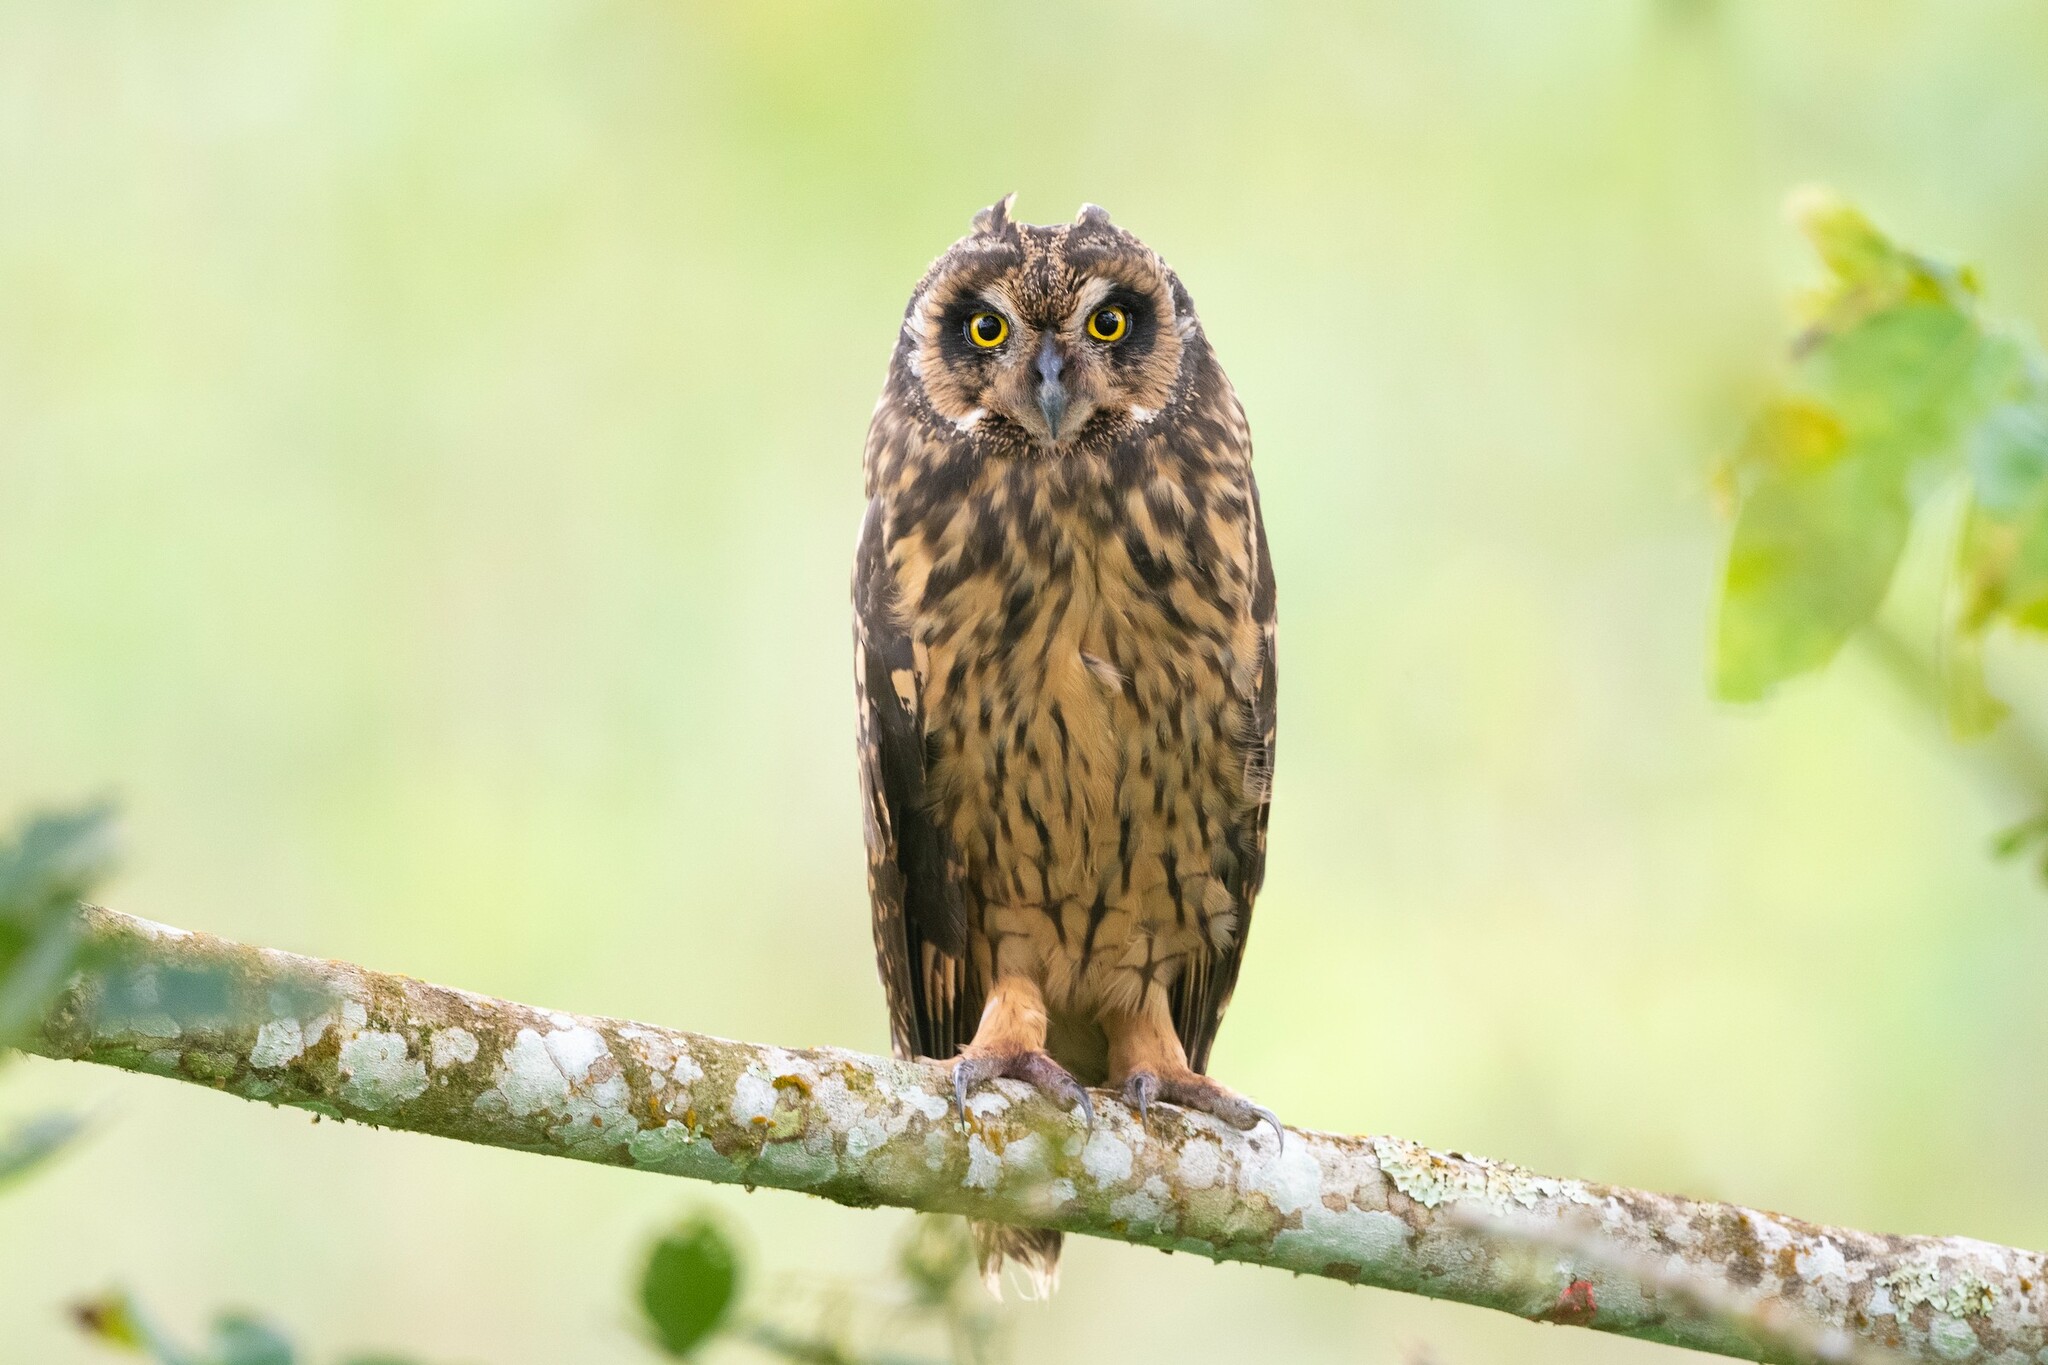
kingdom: Animalia
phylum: Chordata
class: Aves
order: Strigiformes
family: Strigidae
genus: Asio
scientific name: Asio flammeus
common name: Short-eared owl
